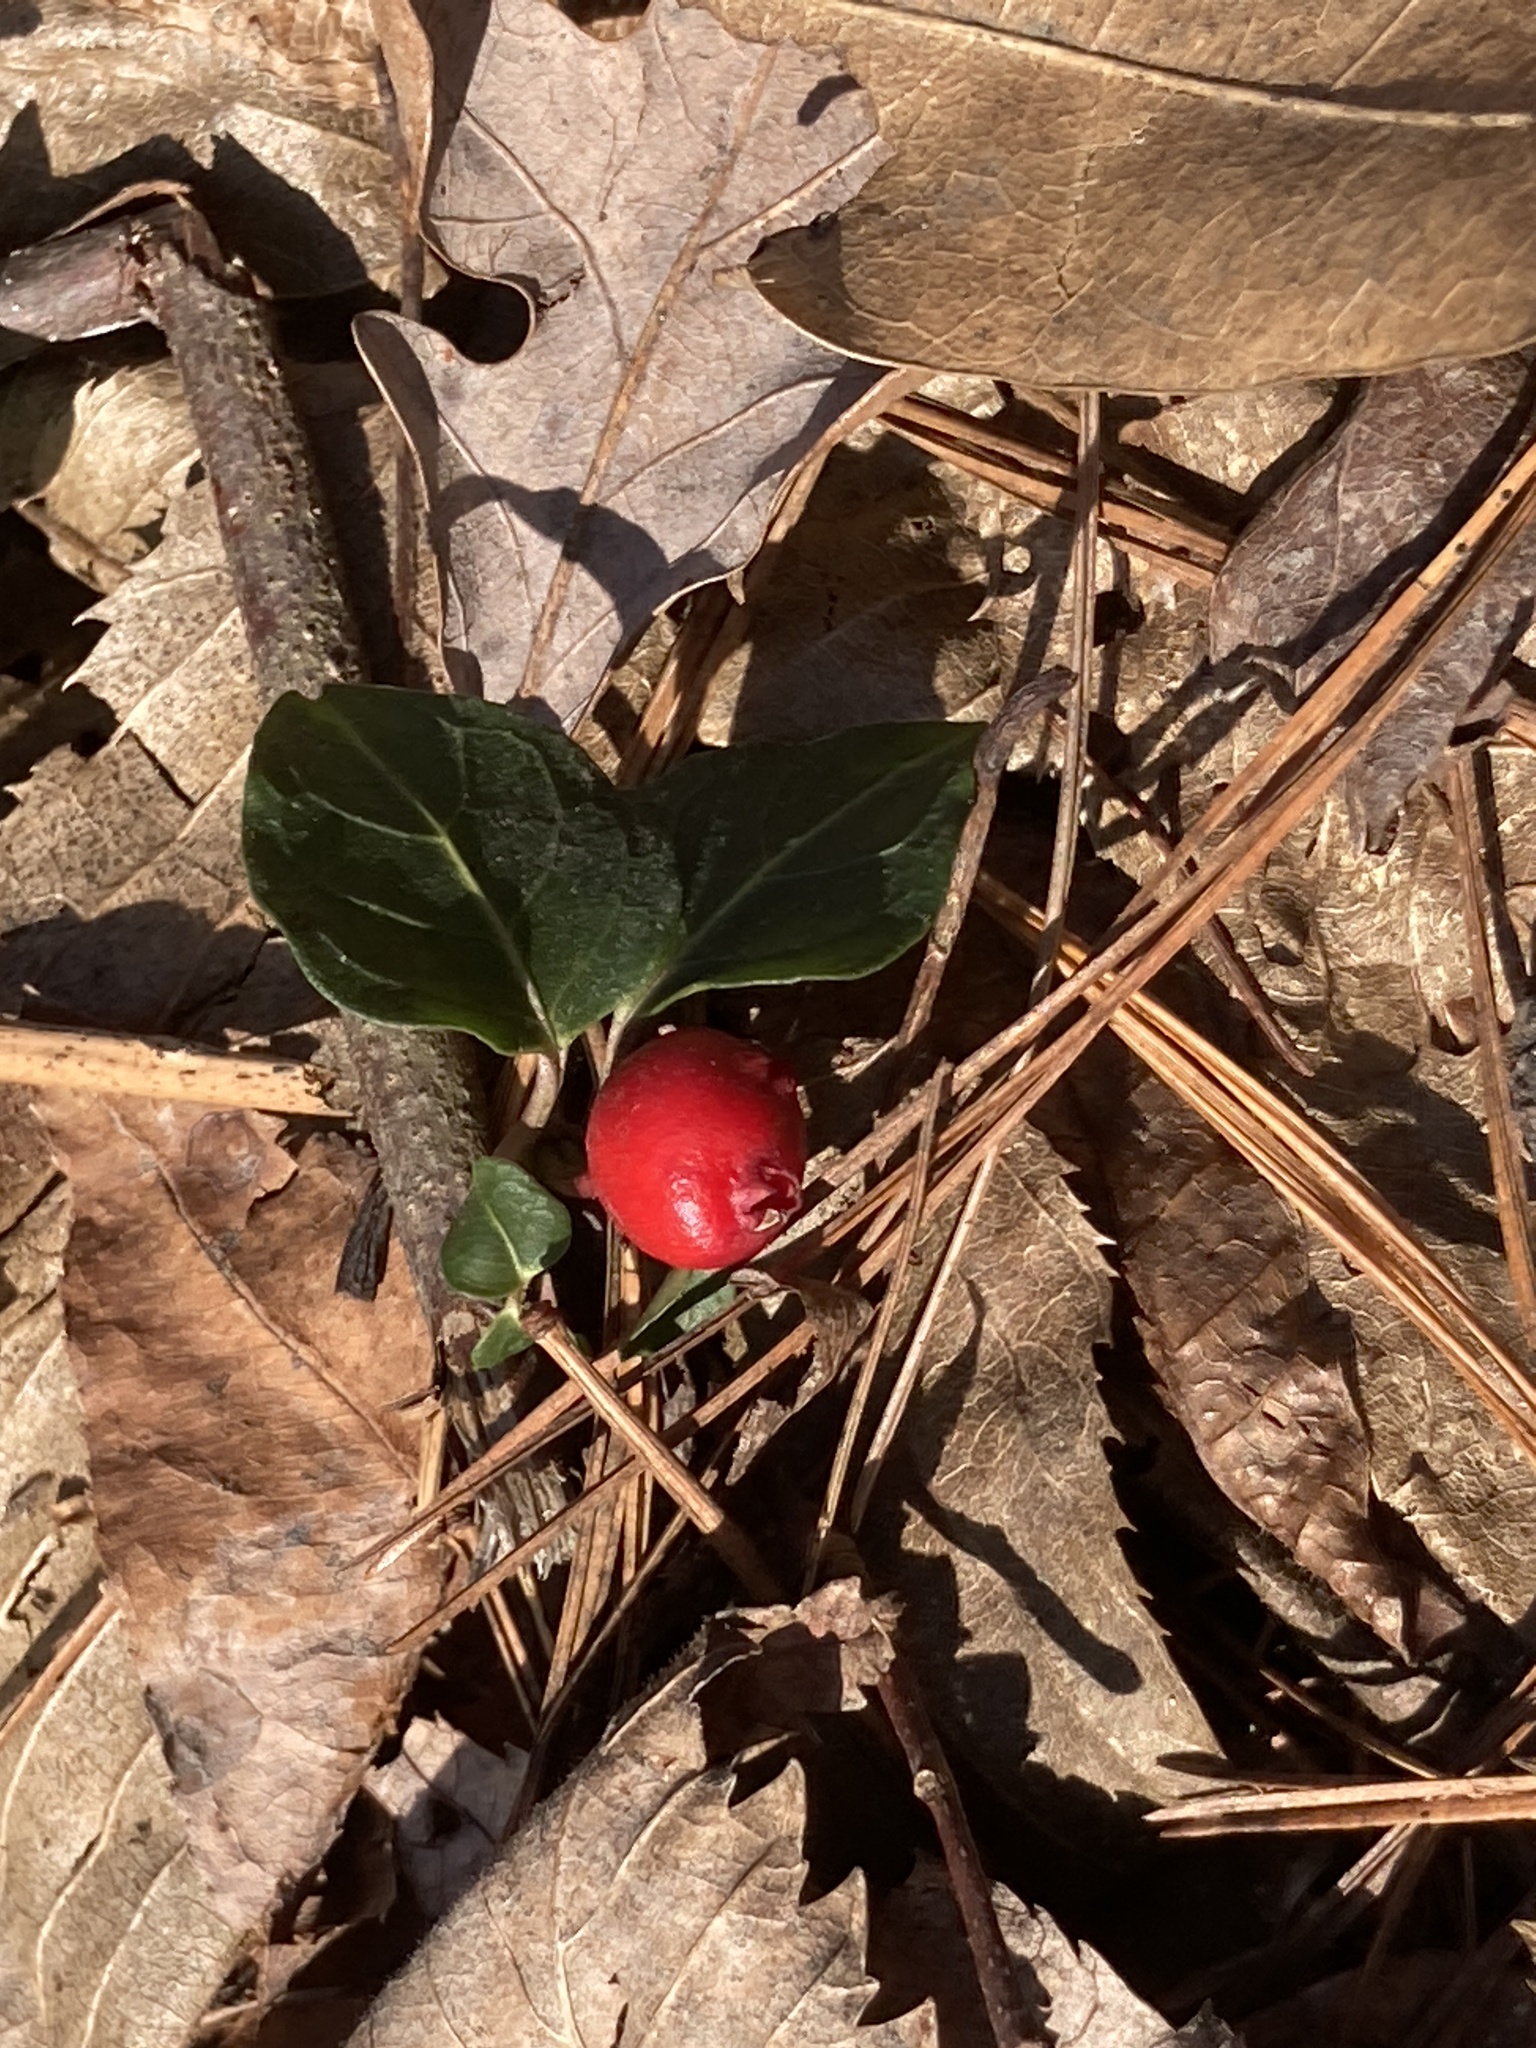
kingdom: Plantae
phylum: Tracheophyta
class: Magnoliopsida
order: Gentianales
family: Rubiaceae
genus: Mitchella
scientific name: Mitchella repens
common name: Partridge-berry
